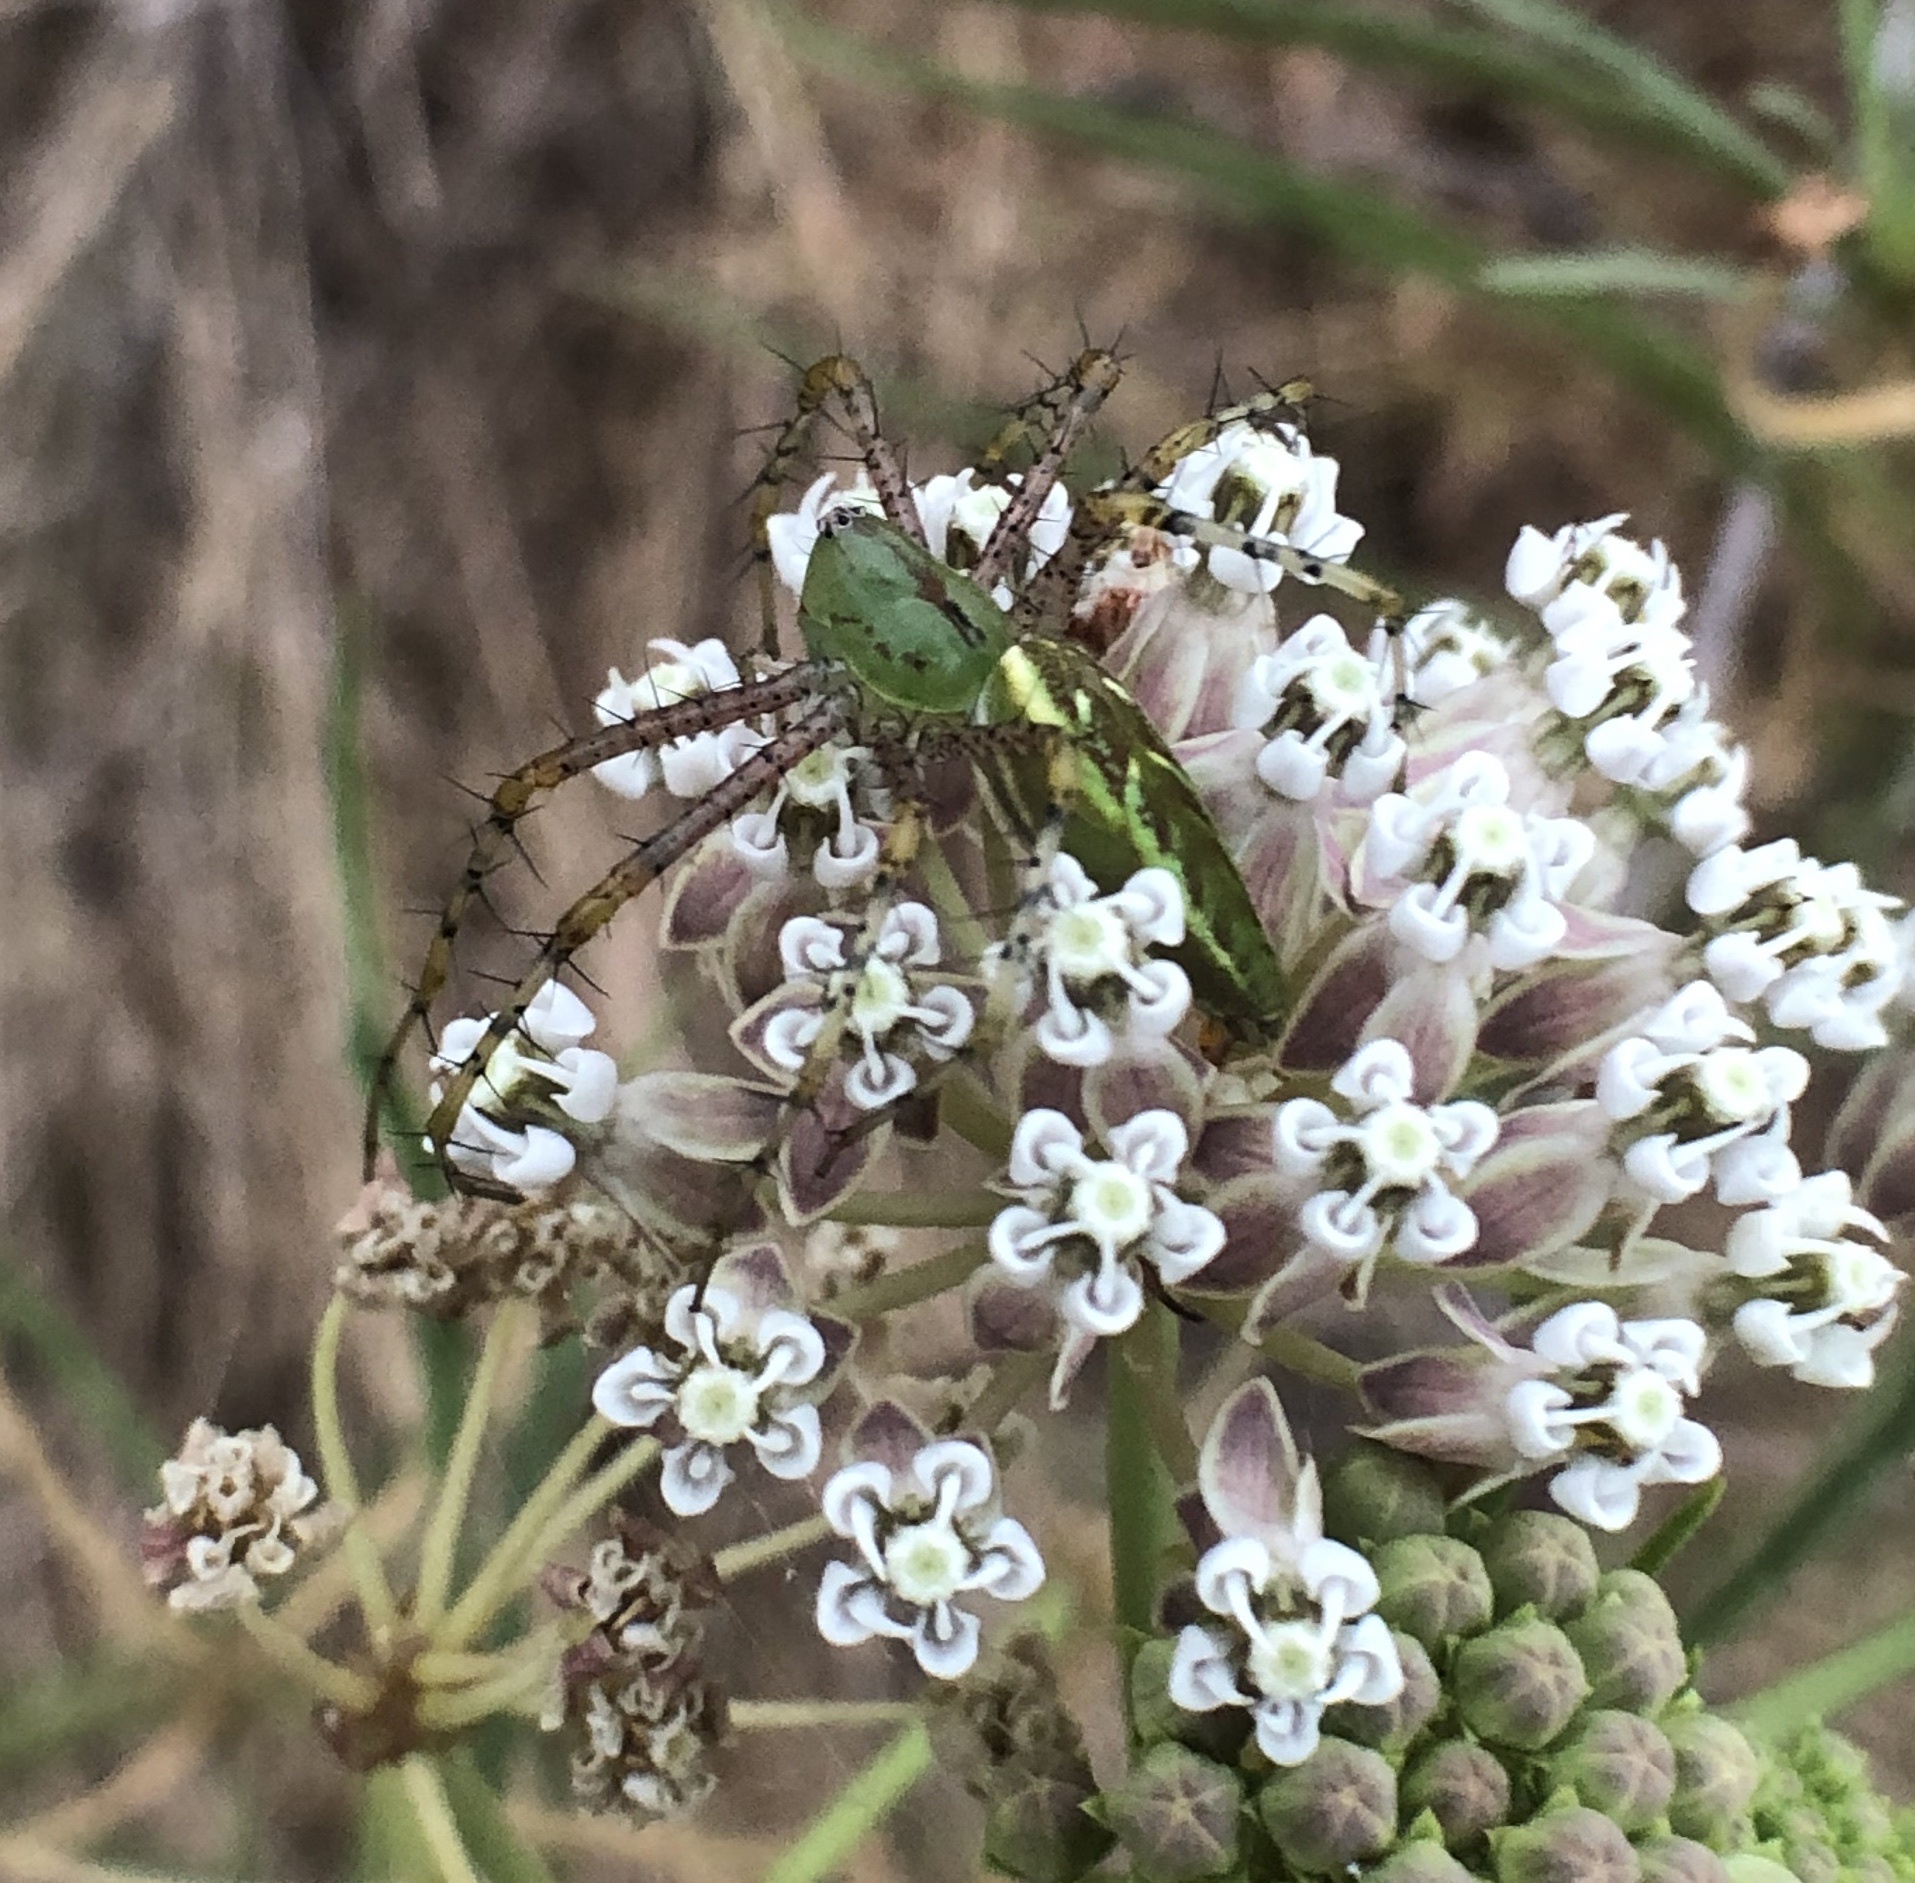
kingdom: Animalia
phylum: Arthropoda
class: Arachnida
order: Araneae
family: Oxyopidae
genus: Peucetia
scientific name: Peucetia viridans
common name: Lynx spiders
